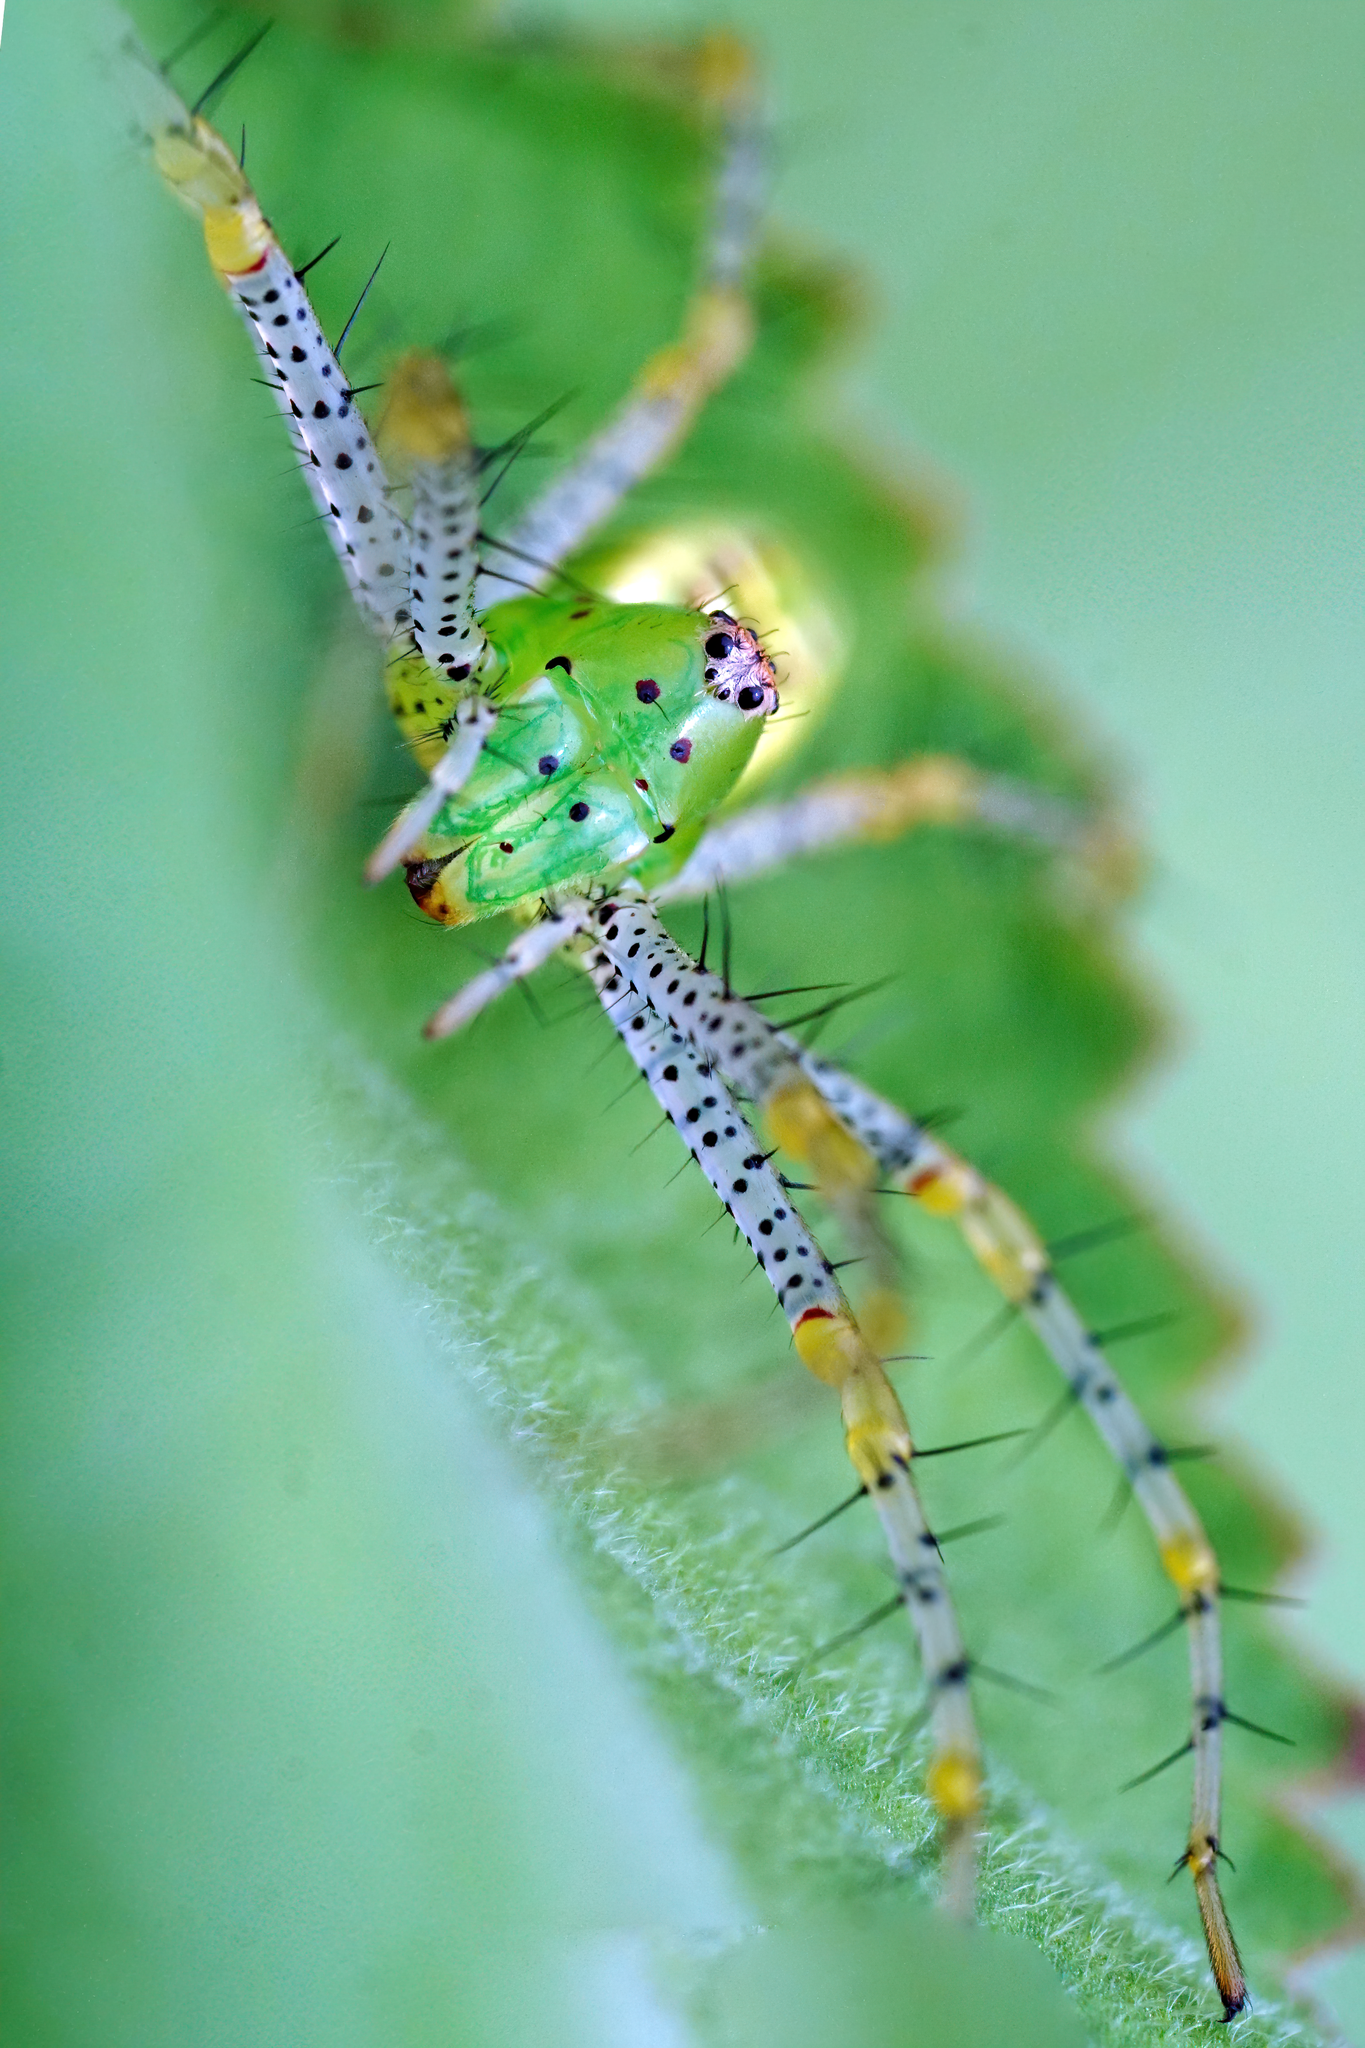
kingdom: Animalia
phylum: Arthropoda
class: Arachnida
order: Araneae
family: Oxyopidae
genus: Peucetia
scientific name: Peucetia viridans
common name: Lynx spiders
